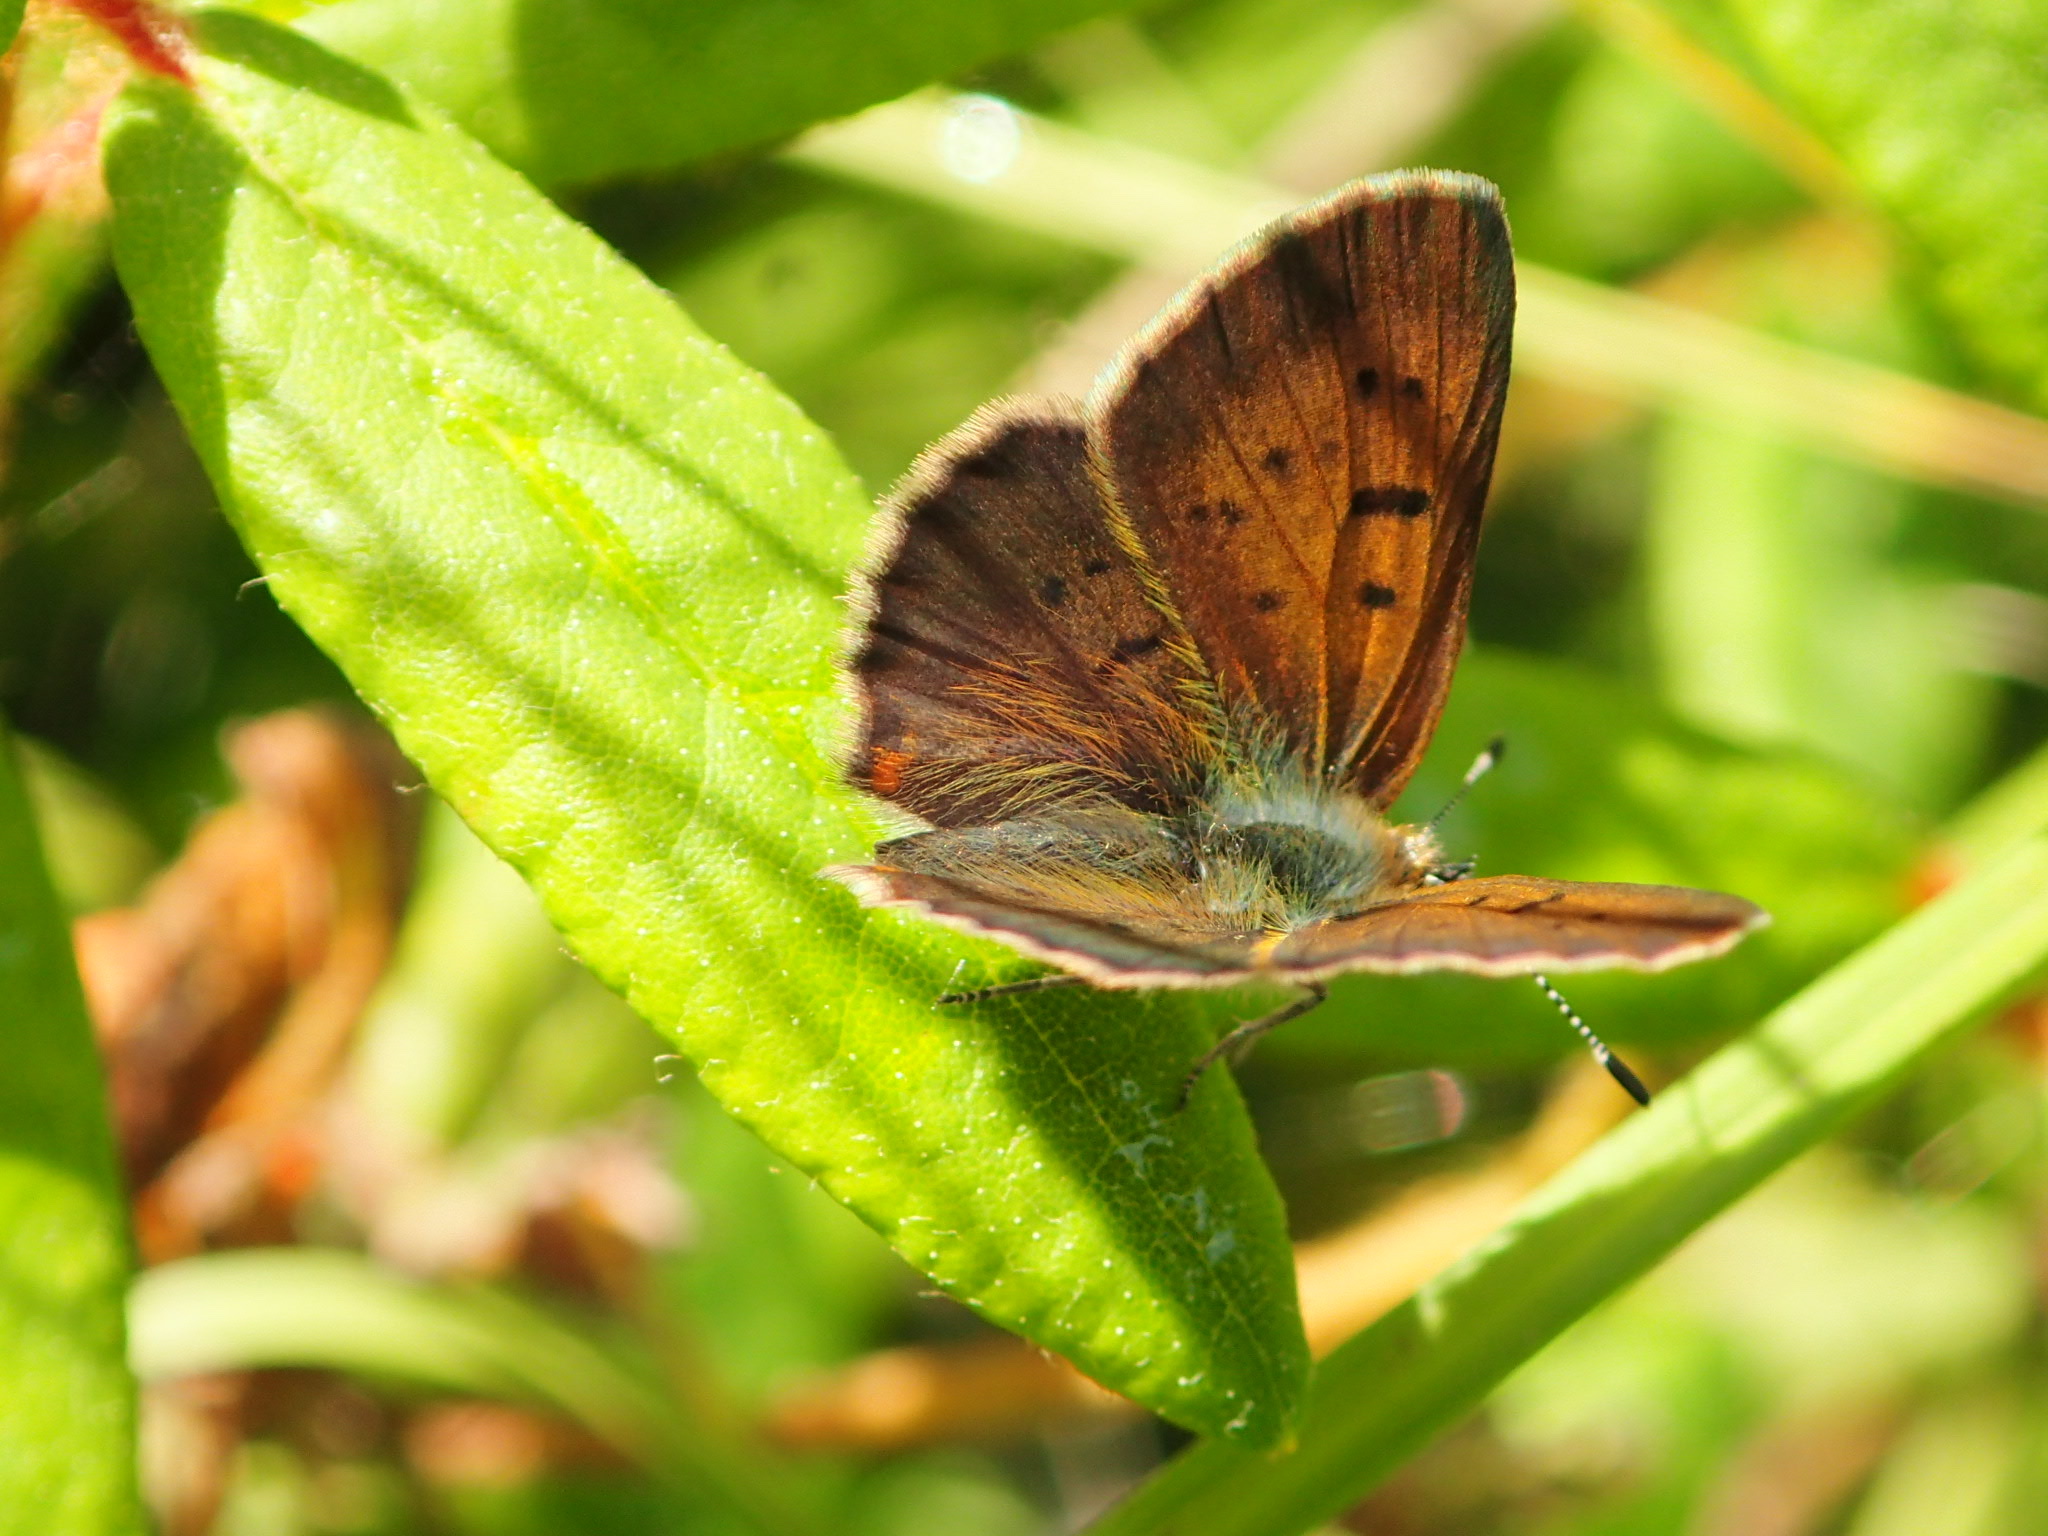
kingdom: Animalia
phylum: Arthropoda
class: Insecta
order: Lepidoptera
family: Lycaenidae
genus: Tharsalea
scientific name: Tharsalea dorcas
